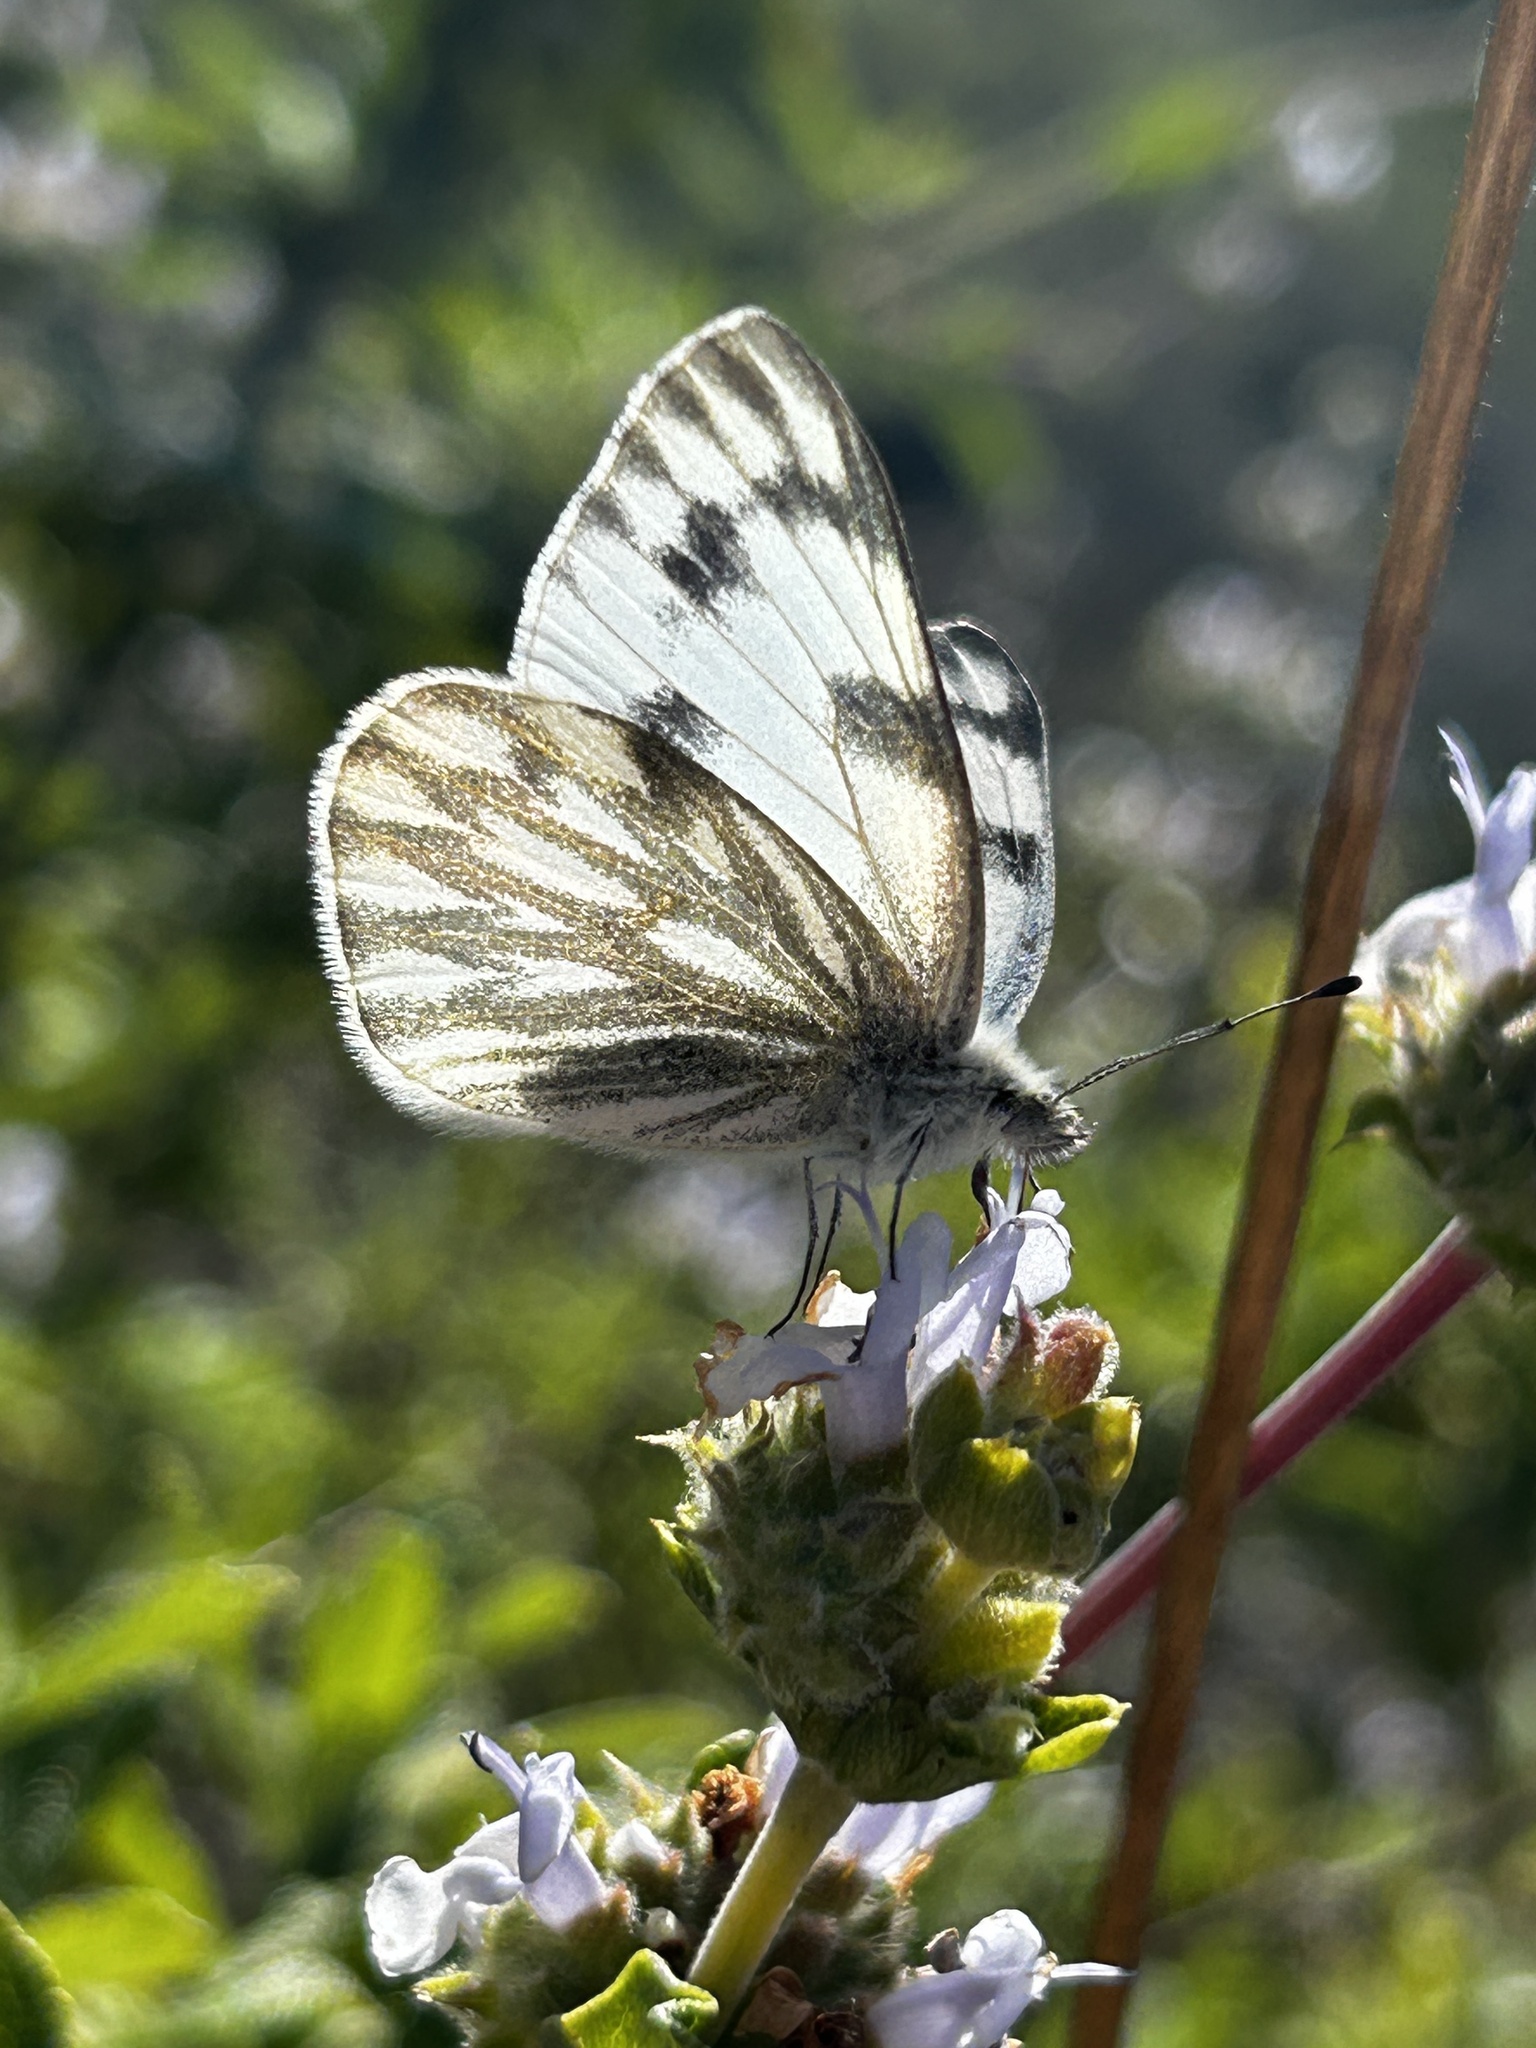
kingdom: Animalia
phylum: Arthropoda
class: Insecta
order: Lepidoptera
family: Pieridae
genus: Pontia
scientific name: Pontia protodice
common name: Checkered white
